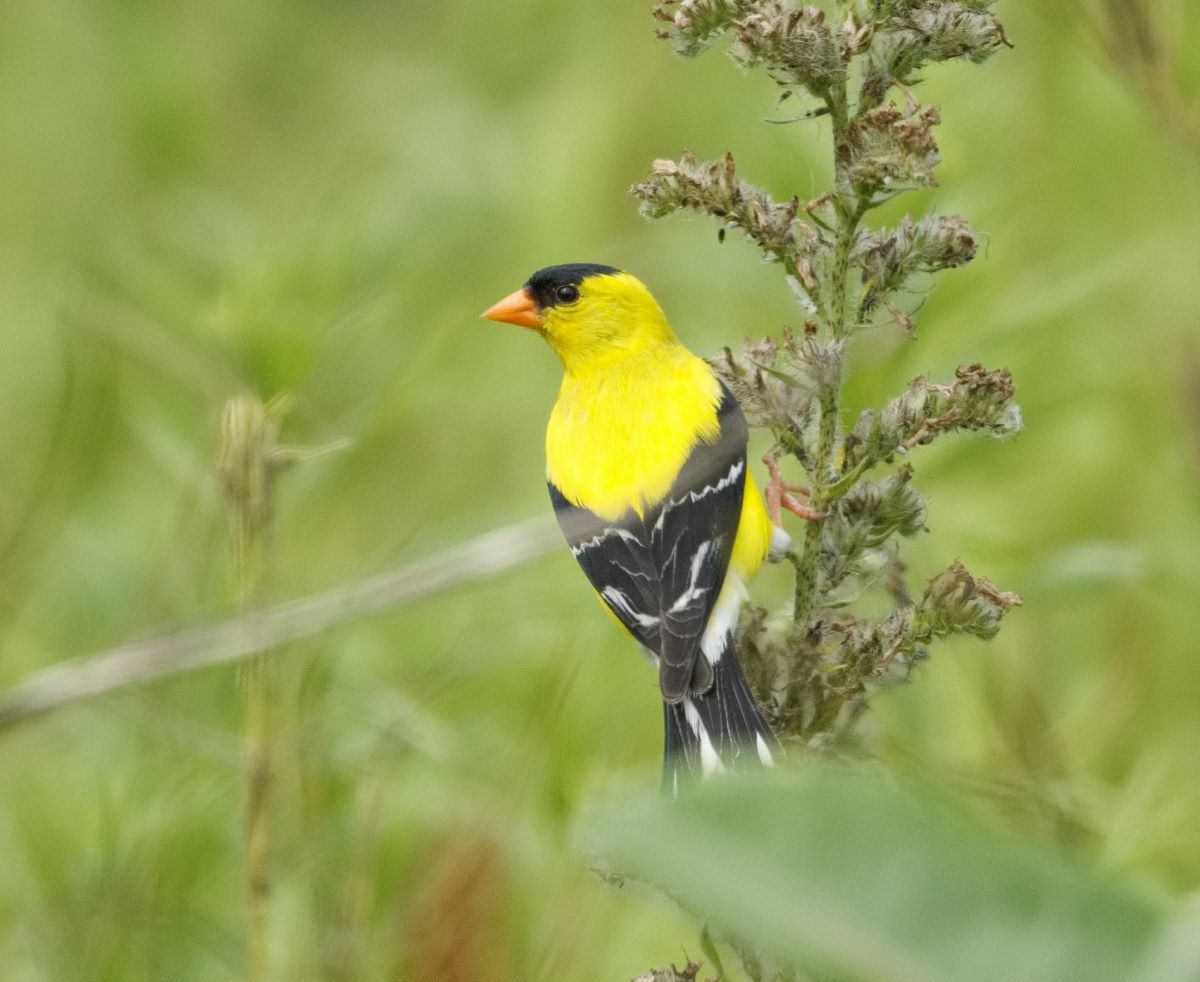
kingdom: Animalia
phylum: Chordata
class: Aves
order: Passeriformes
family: Fringillidae
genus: Spinus
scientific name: Spinus tristis
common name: American goldfinch
